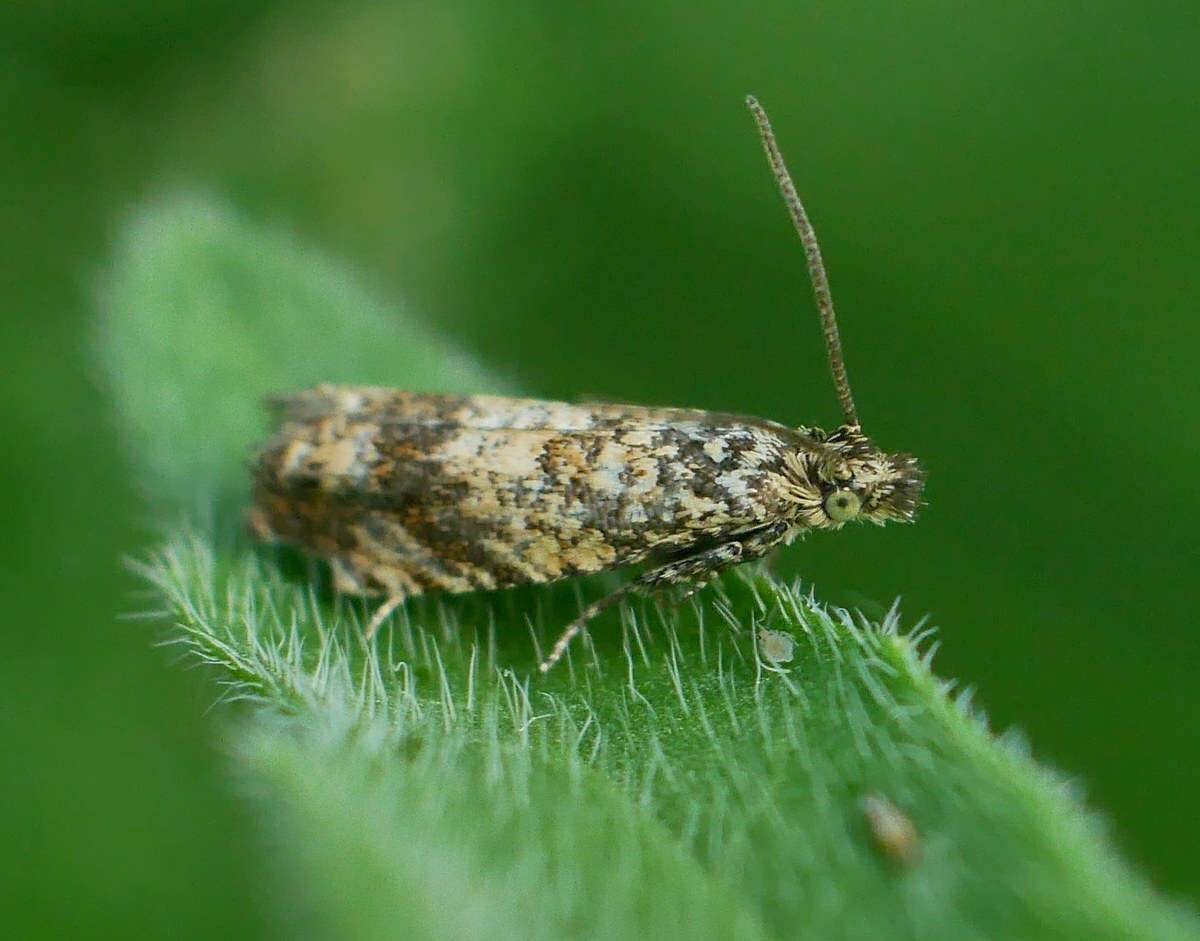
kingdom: Animalia
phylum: Arthropoda
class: Insecta
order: Lepidoptera
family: Tortricidae
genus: Epinotia
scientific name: Epinotia kochiana
